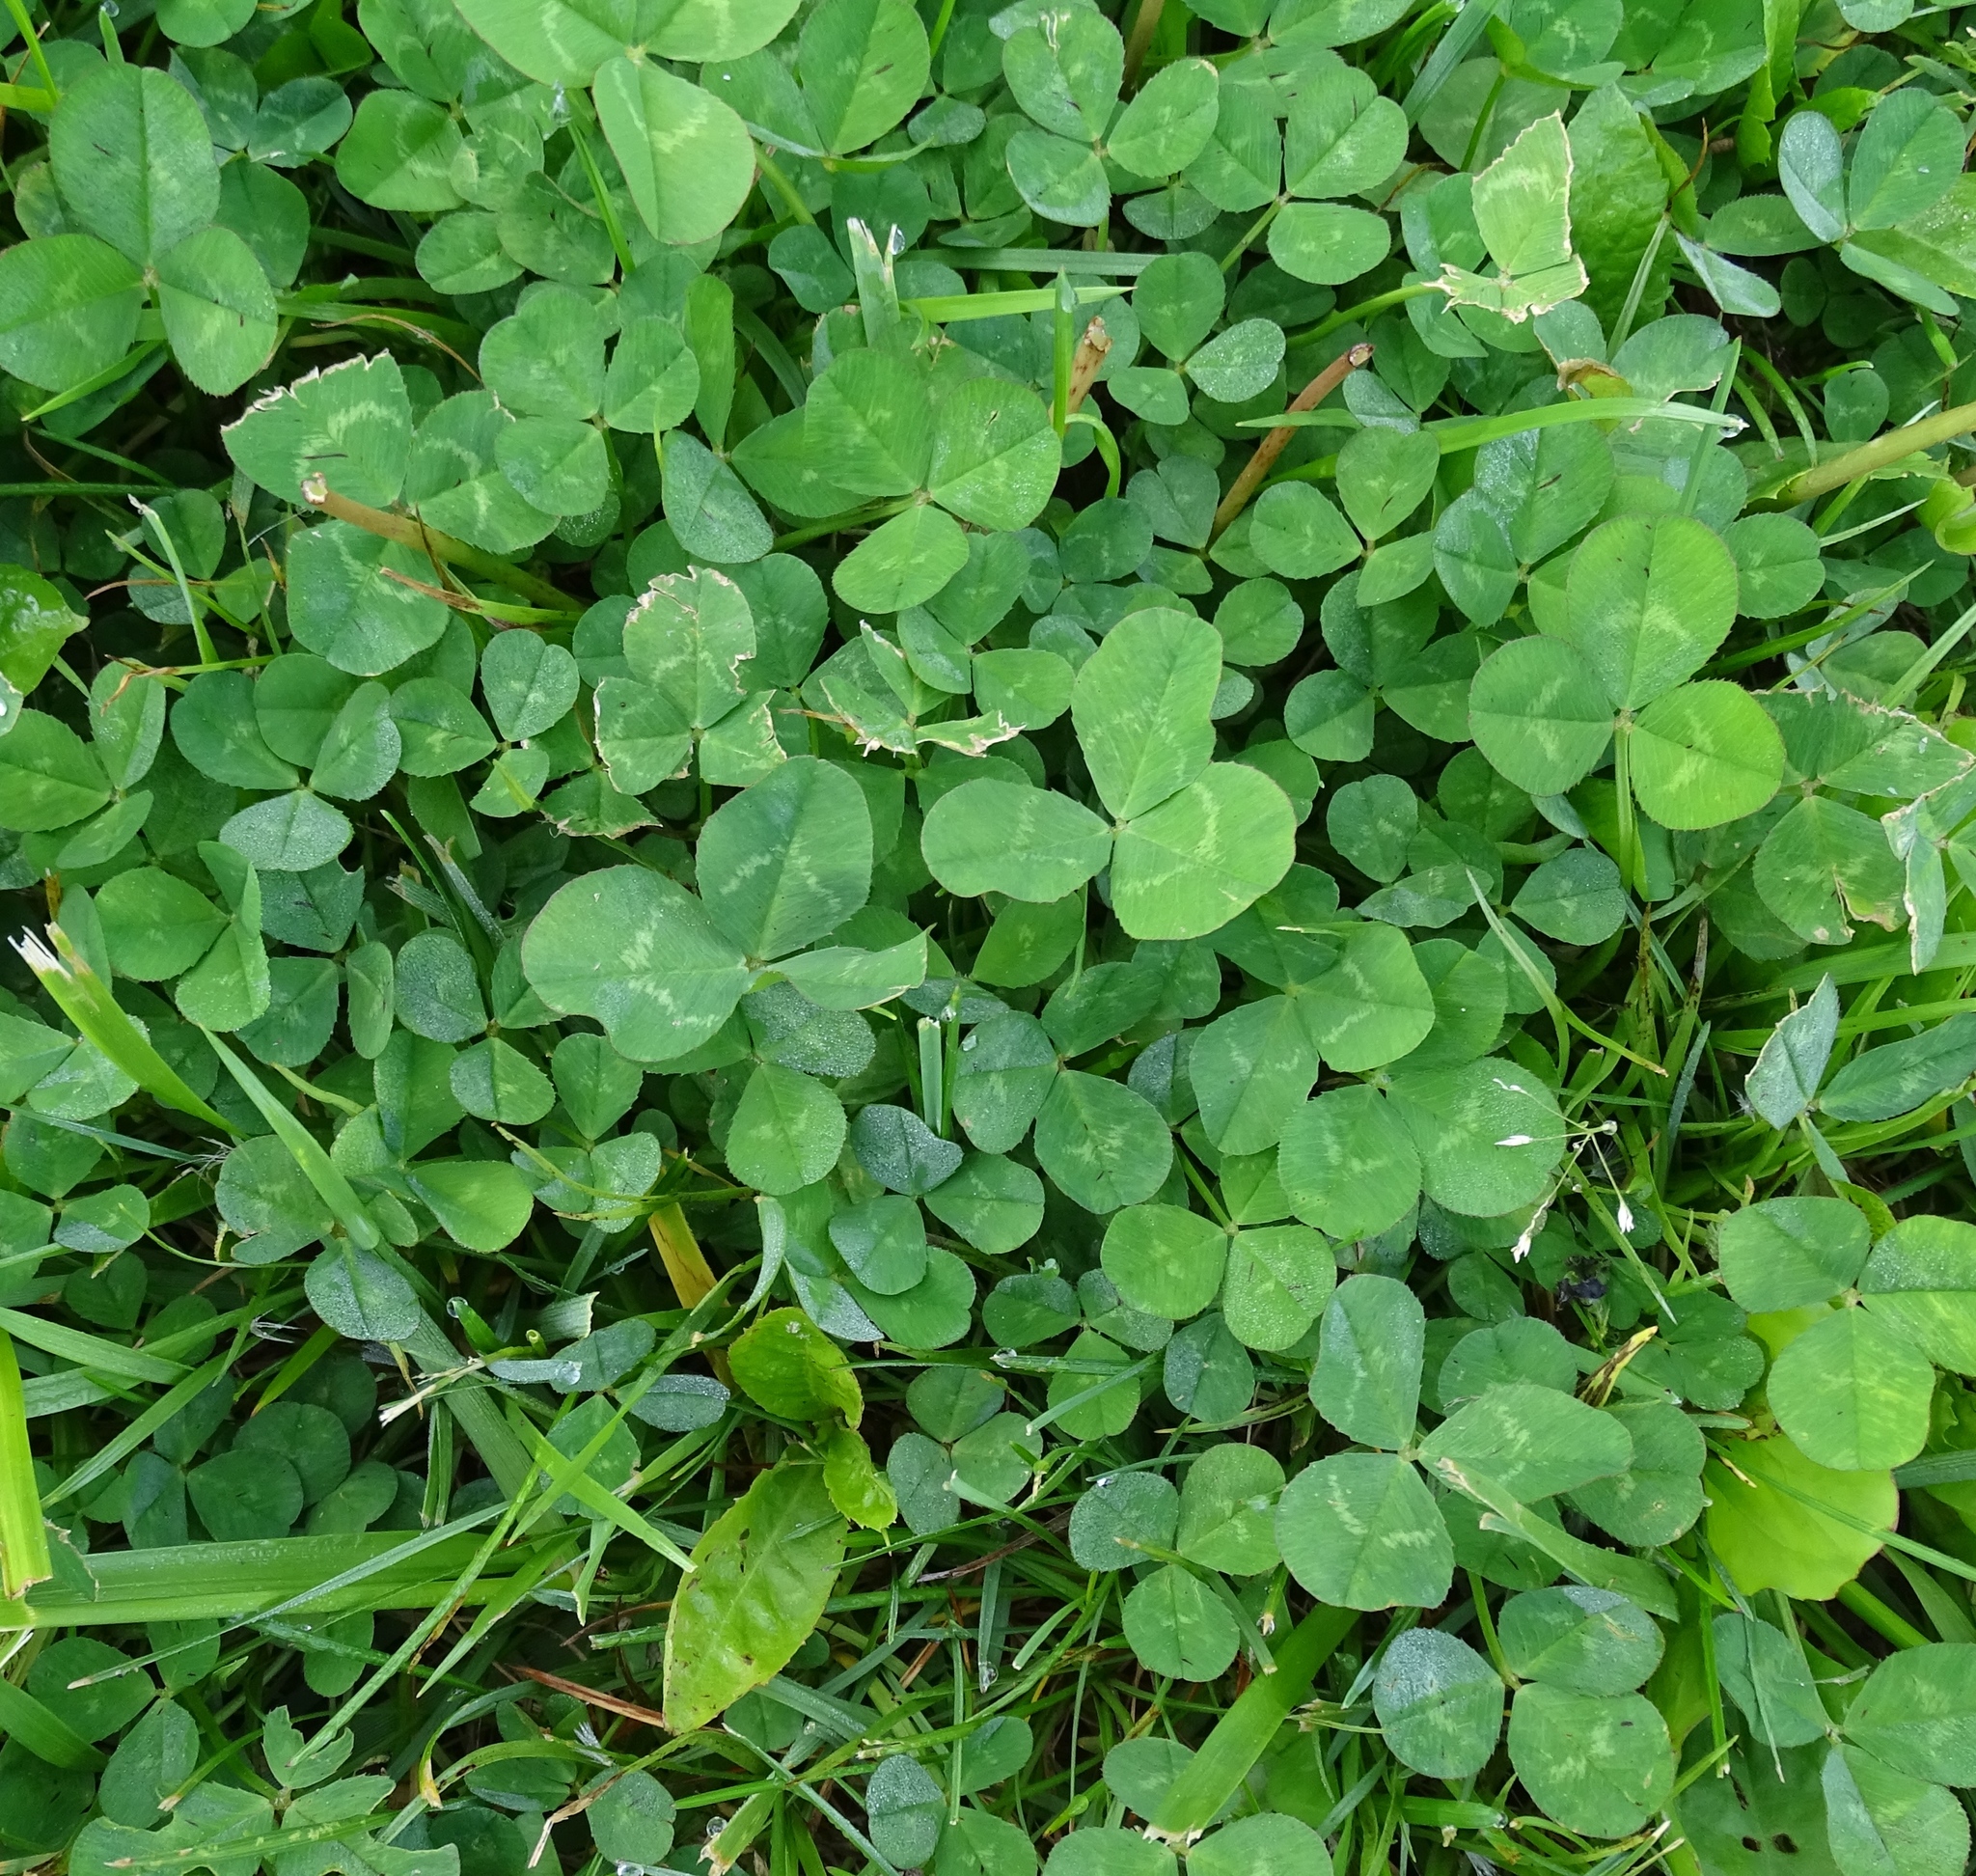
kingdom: Plantae
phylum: Tracheophyta
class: Magnoliopsida
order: Fabales
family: Fabaceae
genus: Trifolium
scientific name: Trifolium repens
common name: White clover
